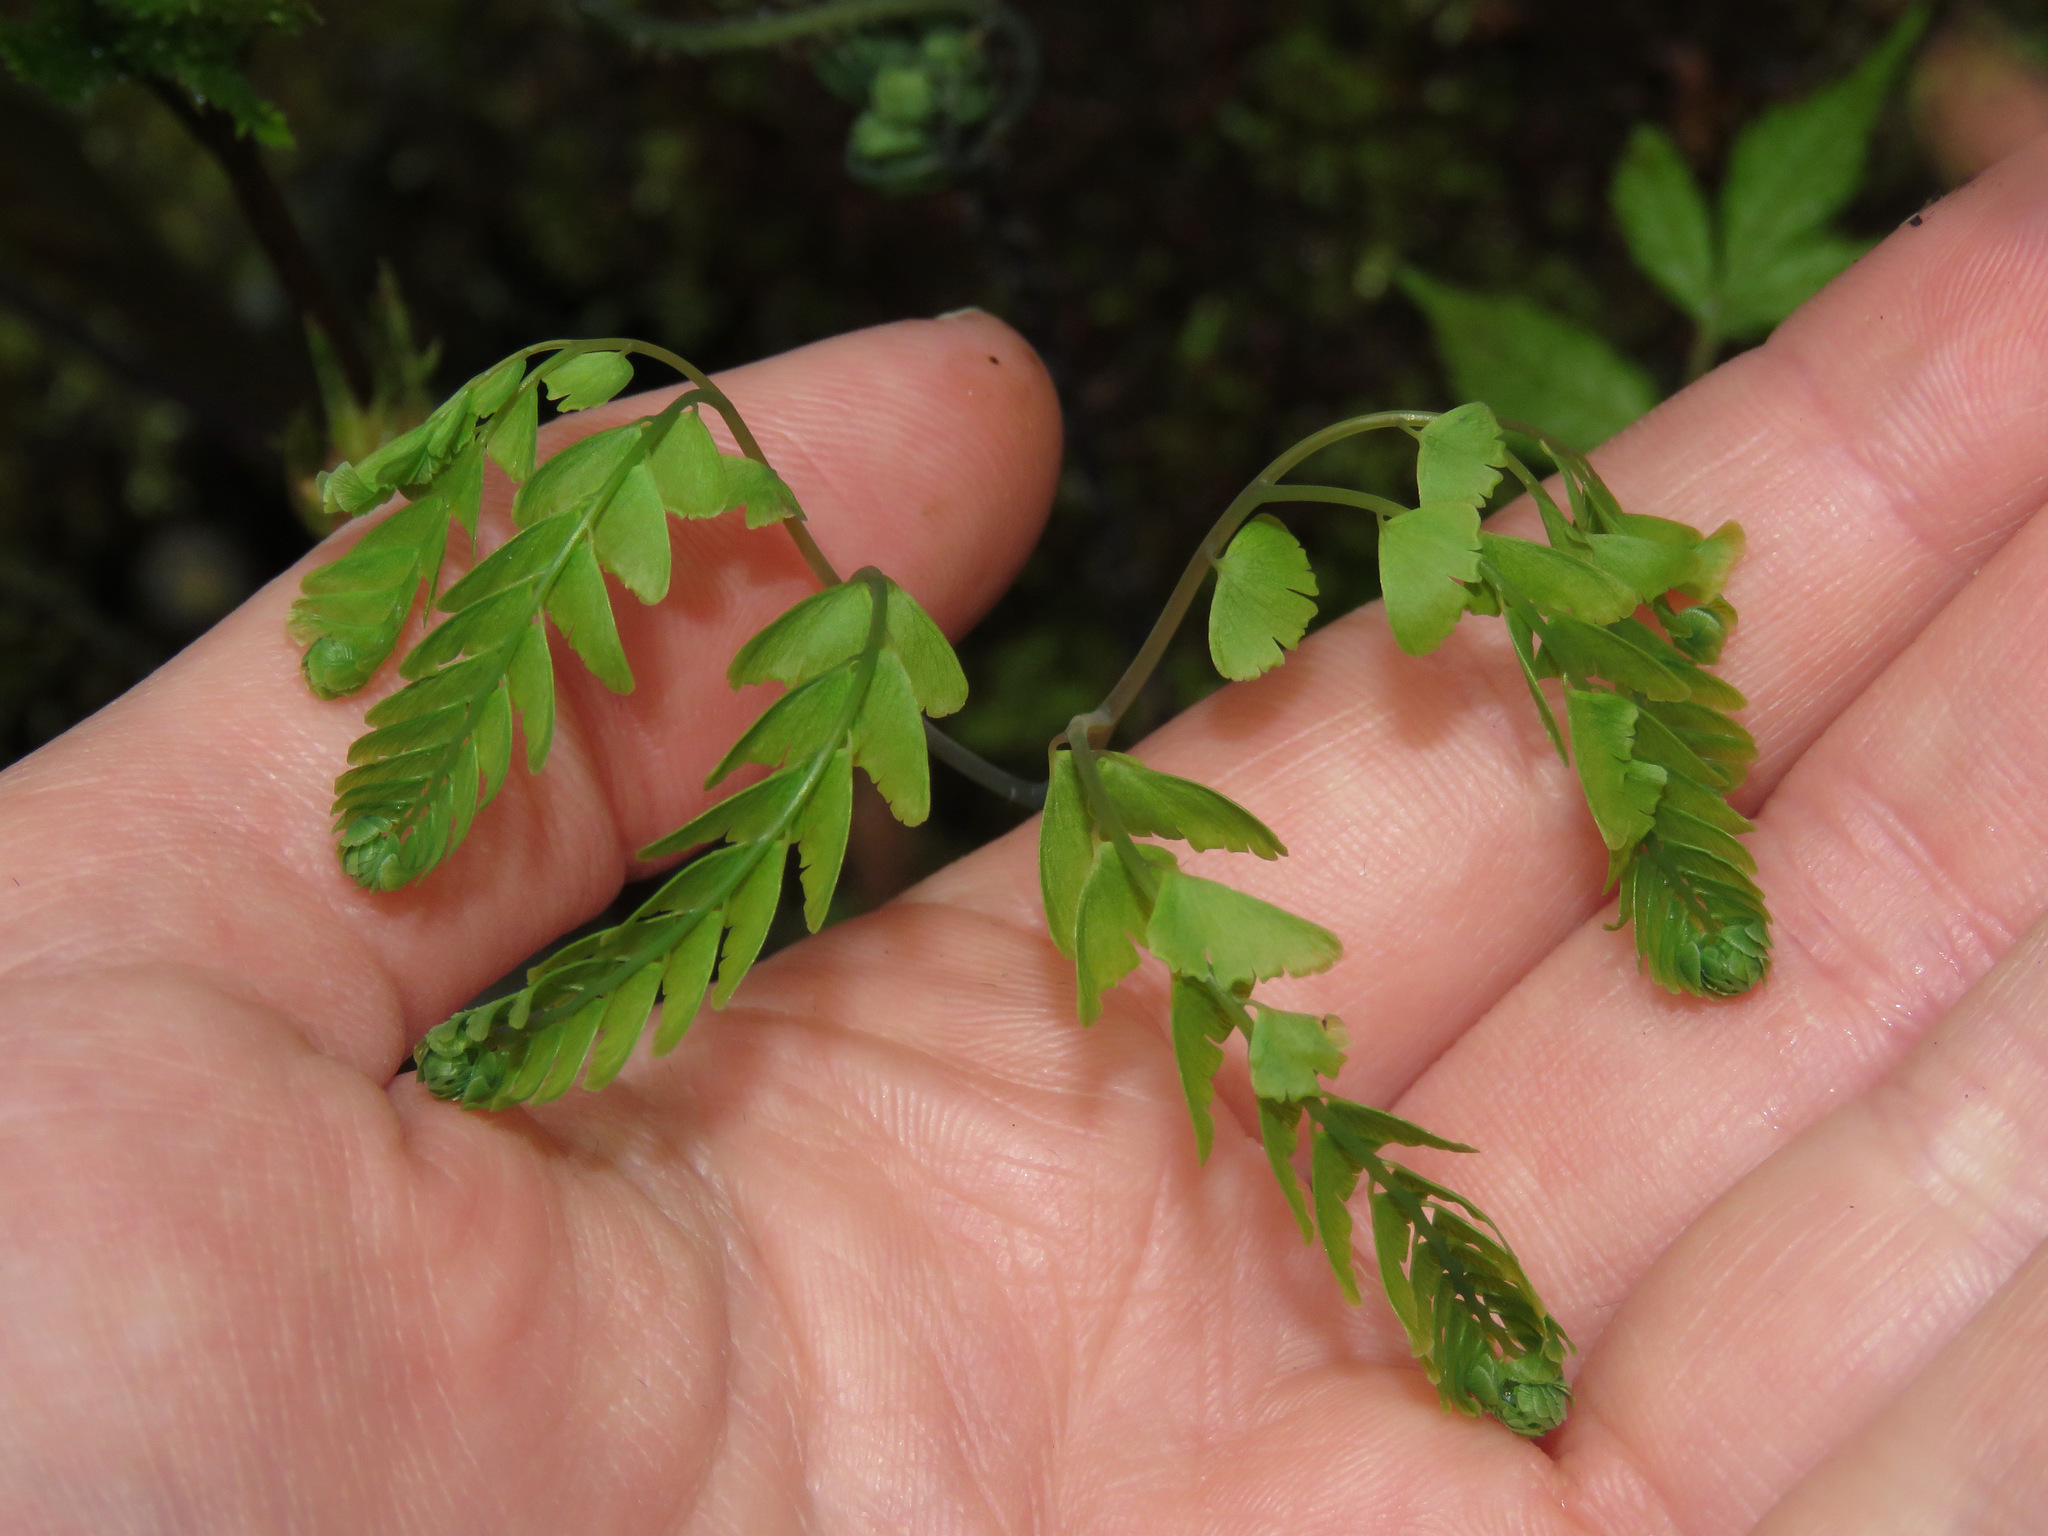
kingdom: Plantae
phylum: Tracheophyta
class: Polypodiopsida
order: Polypodiales
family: Pteridaceae
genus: Adiantum
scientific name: Adiantum aleuticum
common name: Aleutian maidenhair fern
